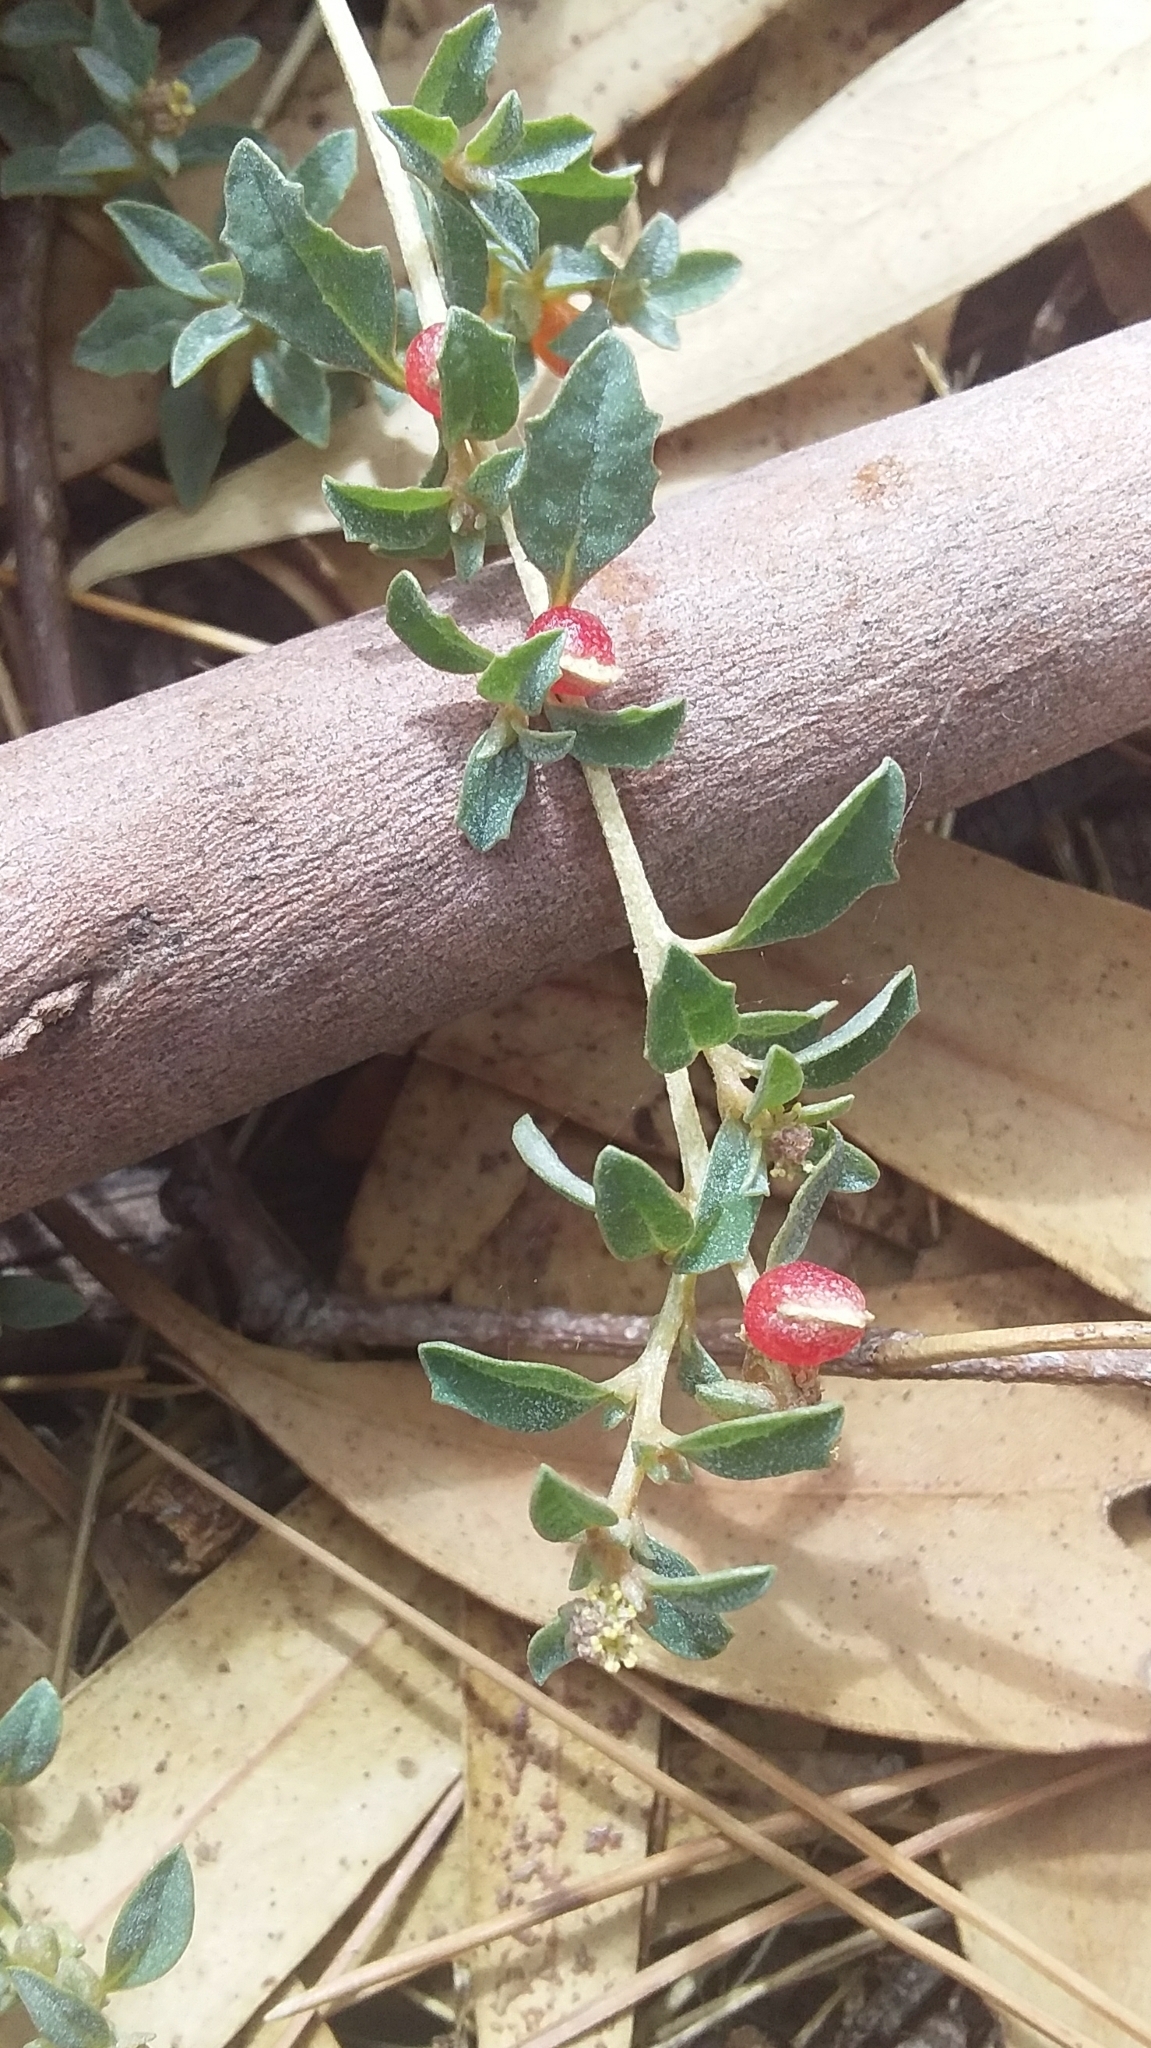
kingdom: Plantae
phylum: Tracheophyta
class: Magnoliopsida
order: Caryophyllales
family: Amaranthaceae
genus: Atriplex
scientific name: Atriplex semibaccata
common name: Australian saltbush
